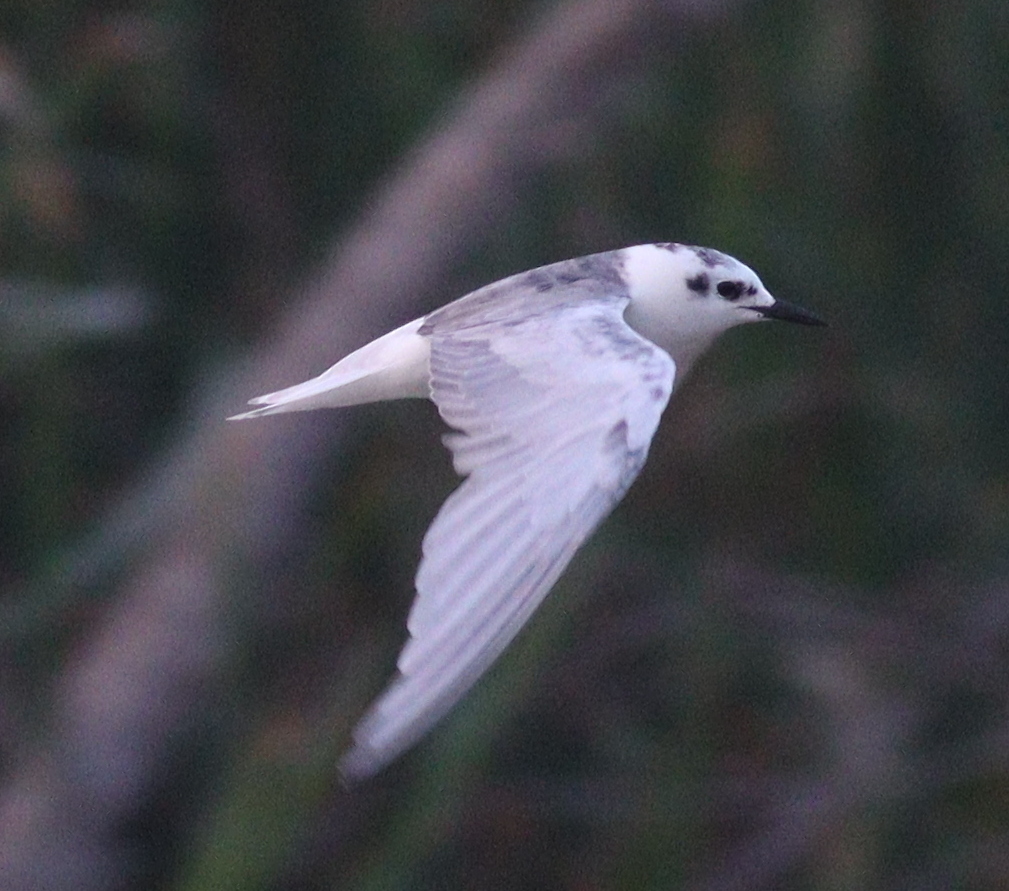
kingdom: Animalia
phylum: Chordata
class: Aves
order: Charadriiformes
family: Laridae
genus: Chlidonias
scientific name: Chlidonias leucopterus
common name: White-winged tern
